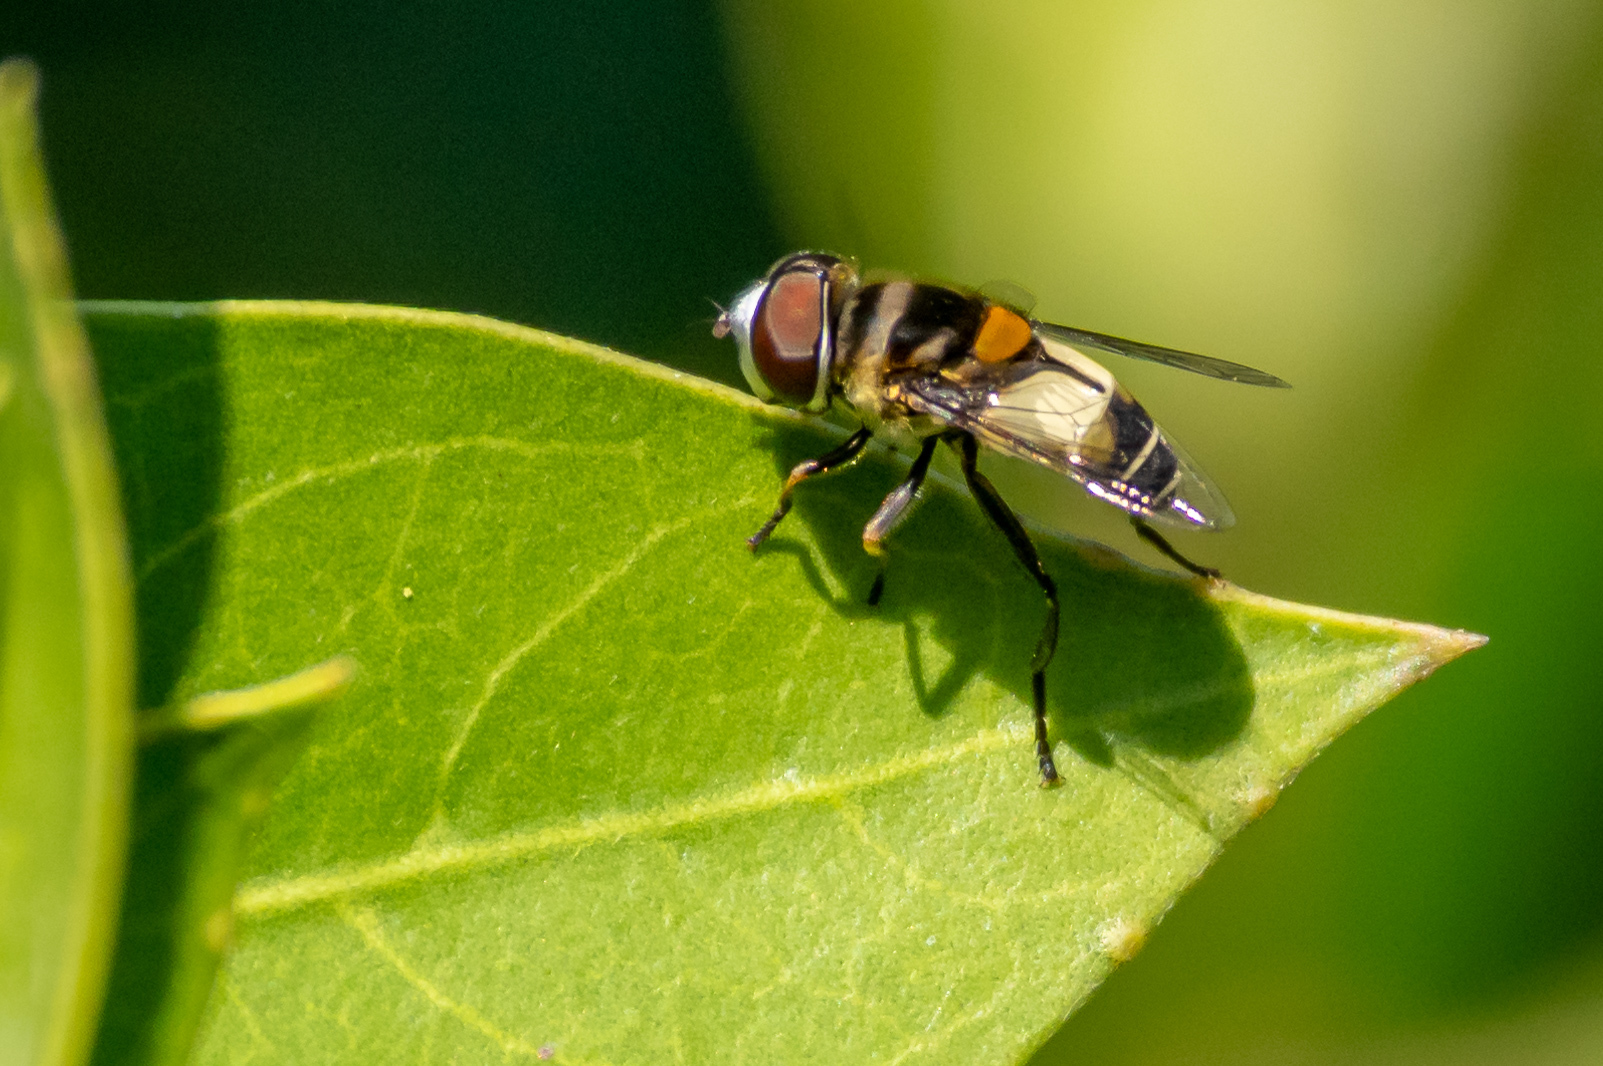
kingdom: Animalia
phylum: Arthropoda
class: Insecta
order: Diptera
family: Syrphidae
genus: Palpada
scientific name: Palpada albifrons
